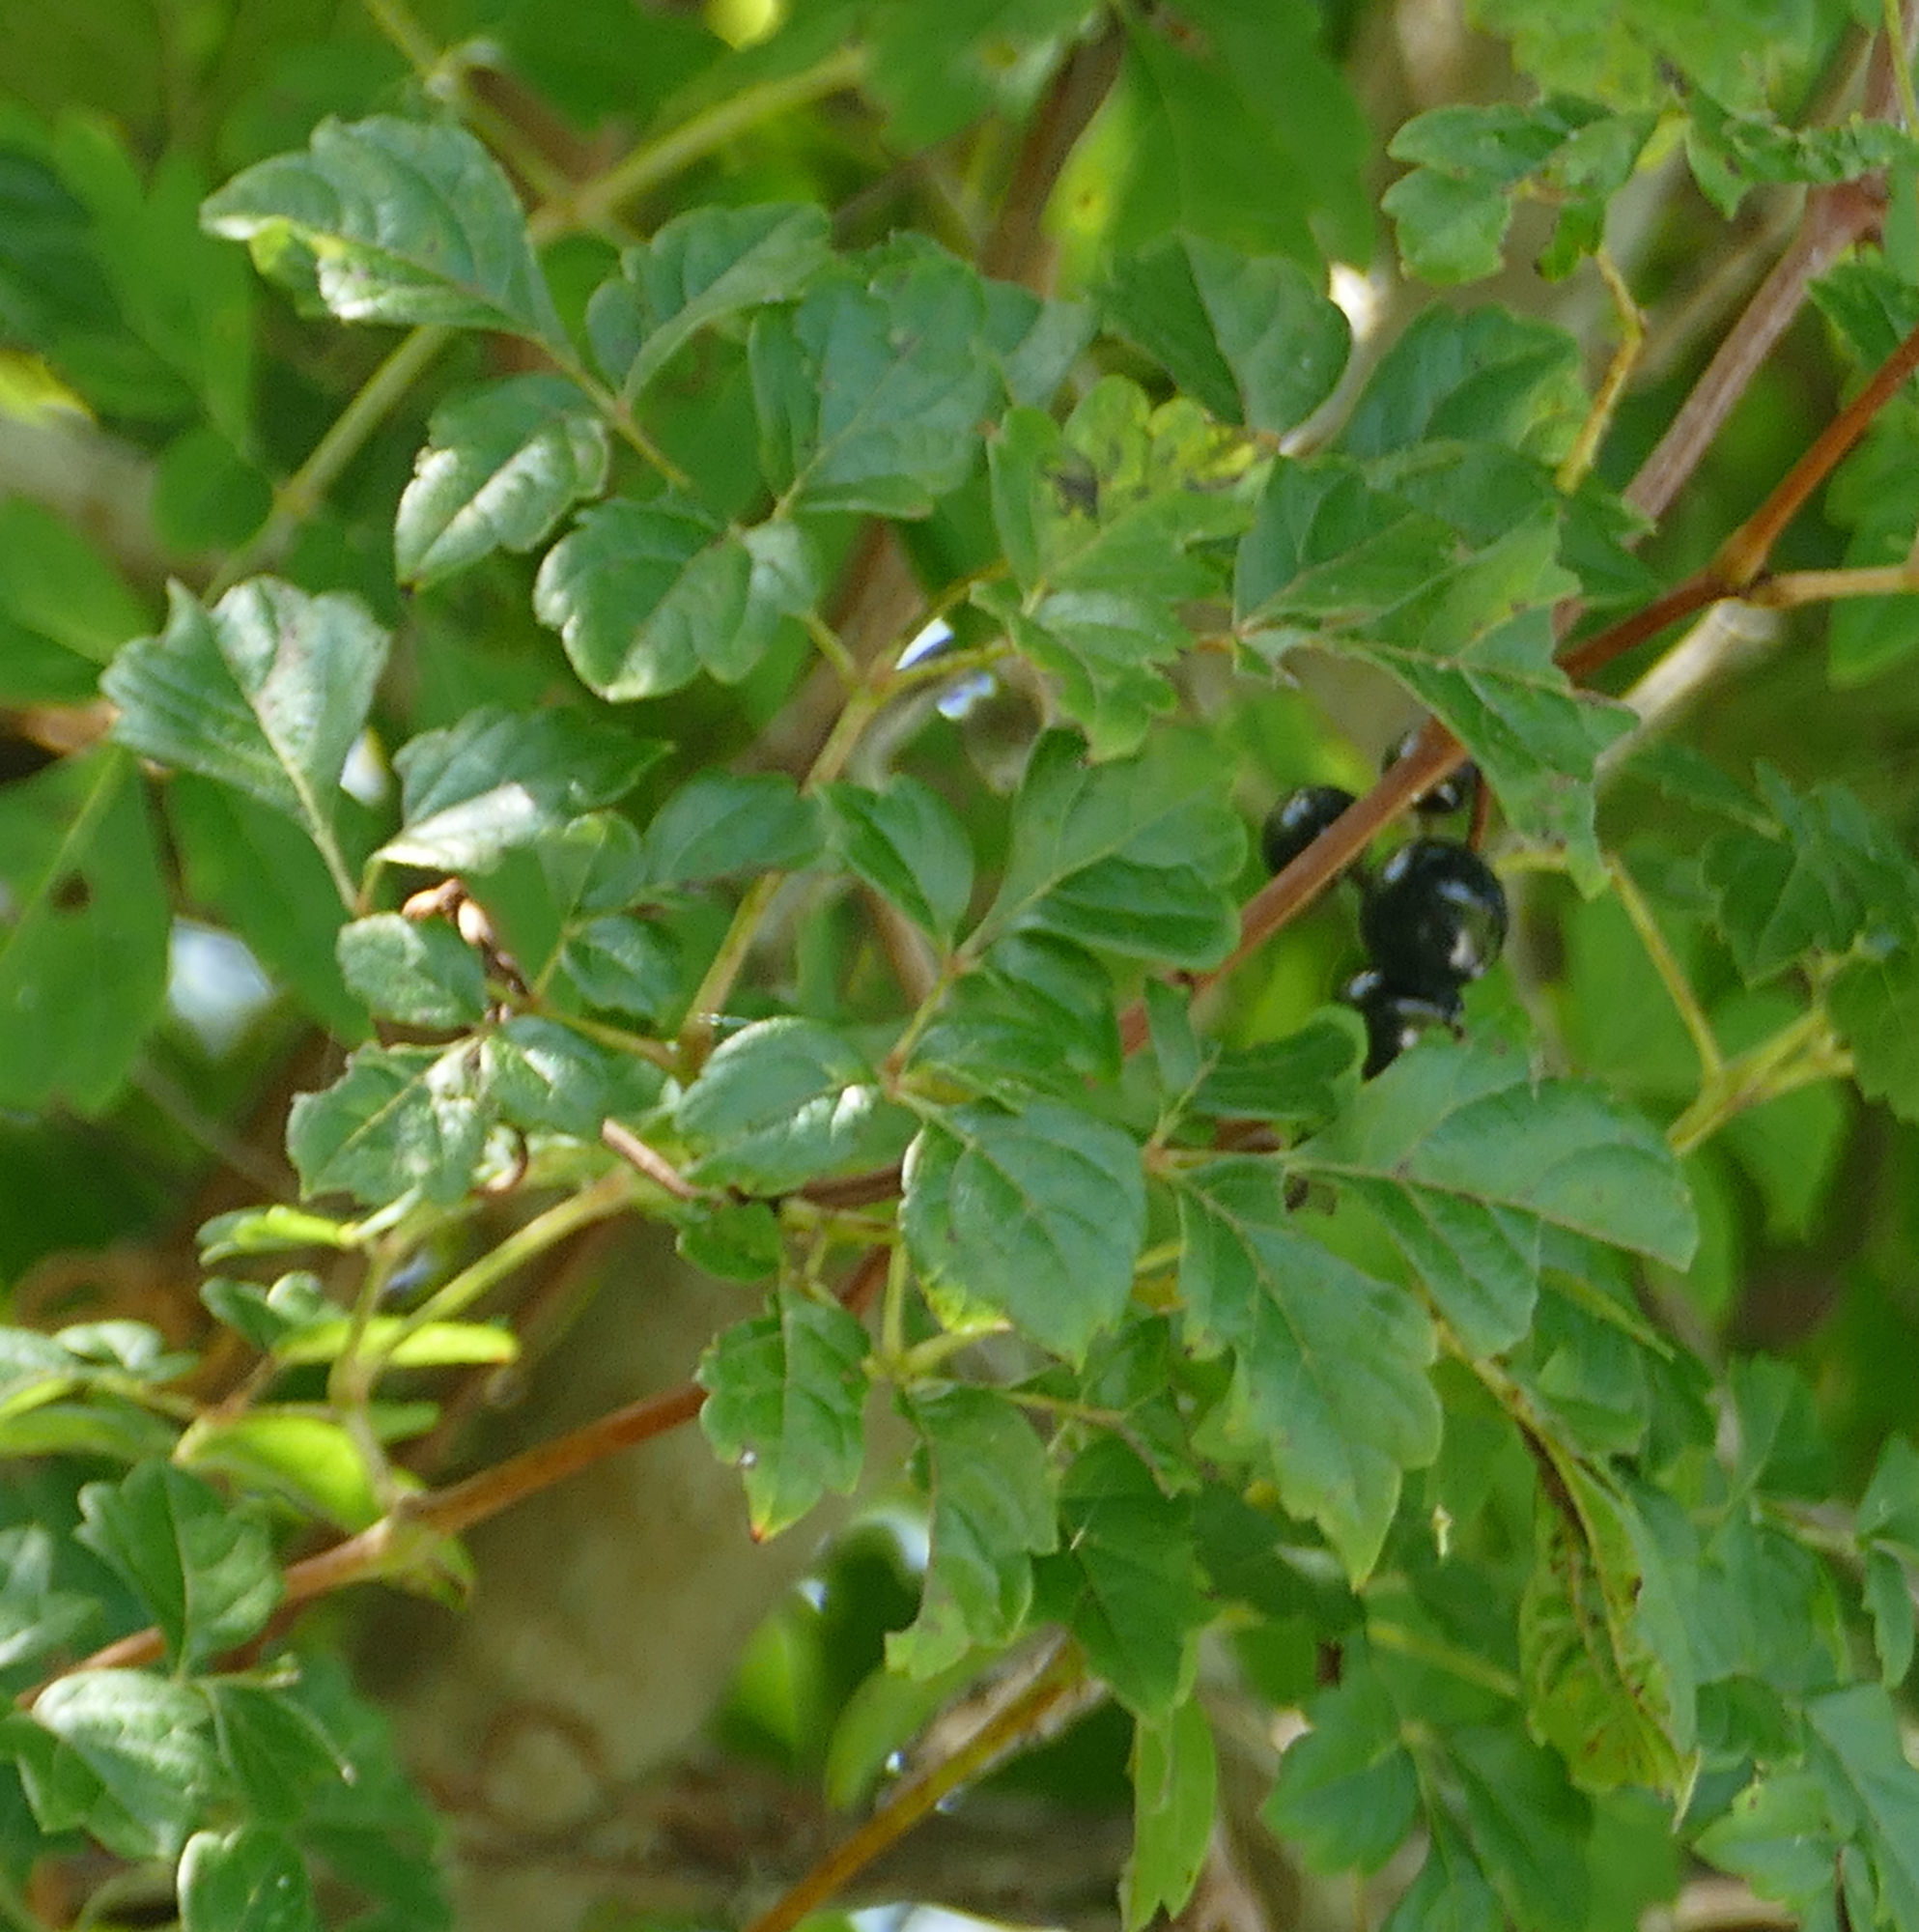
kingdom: Plantae
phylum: Tracheophyta
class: Magnoliopsida
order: Vitales
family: Vitaceae
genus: Nekemias
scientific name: Nekemias arborea
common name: Peppervine
